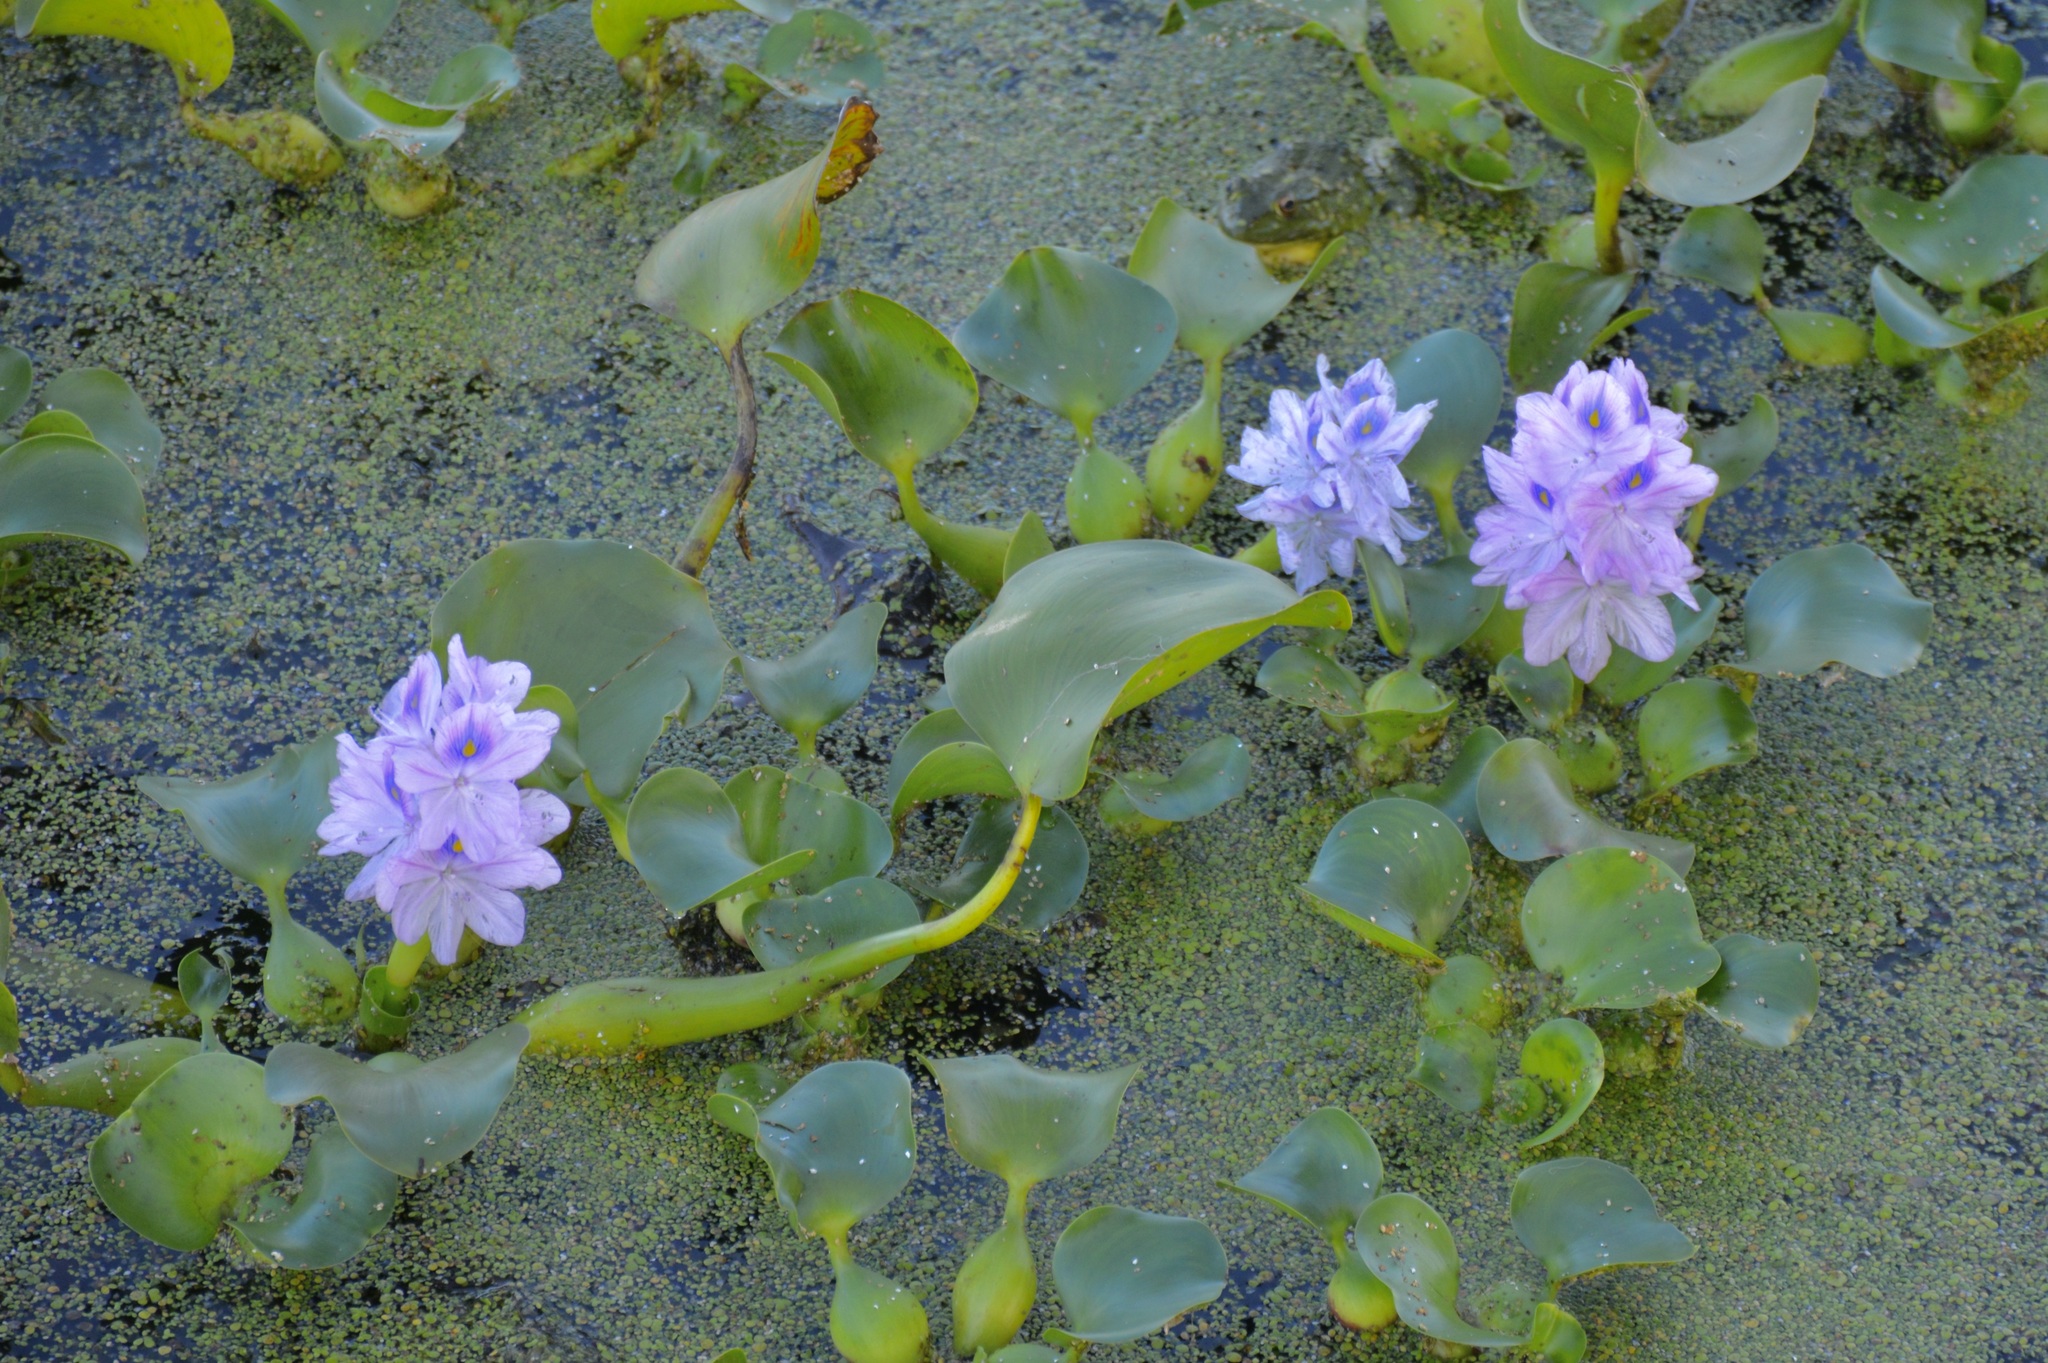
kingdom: Plantae
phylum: Tracheophyta
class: Liliopsida
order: Commelinales
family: Pontederiaceae
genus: Pontederia
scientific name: Pontederia crassipes
